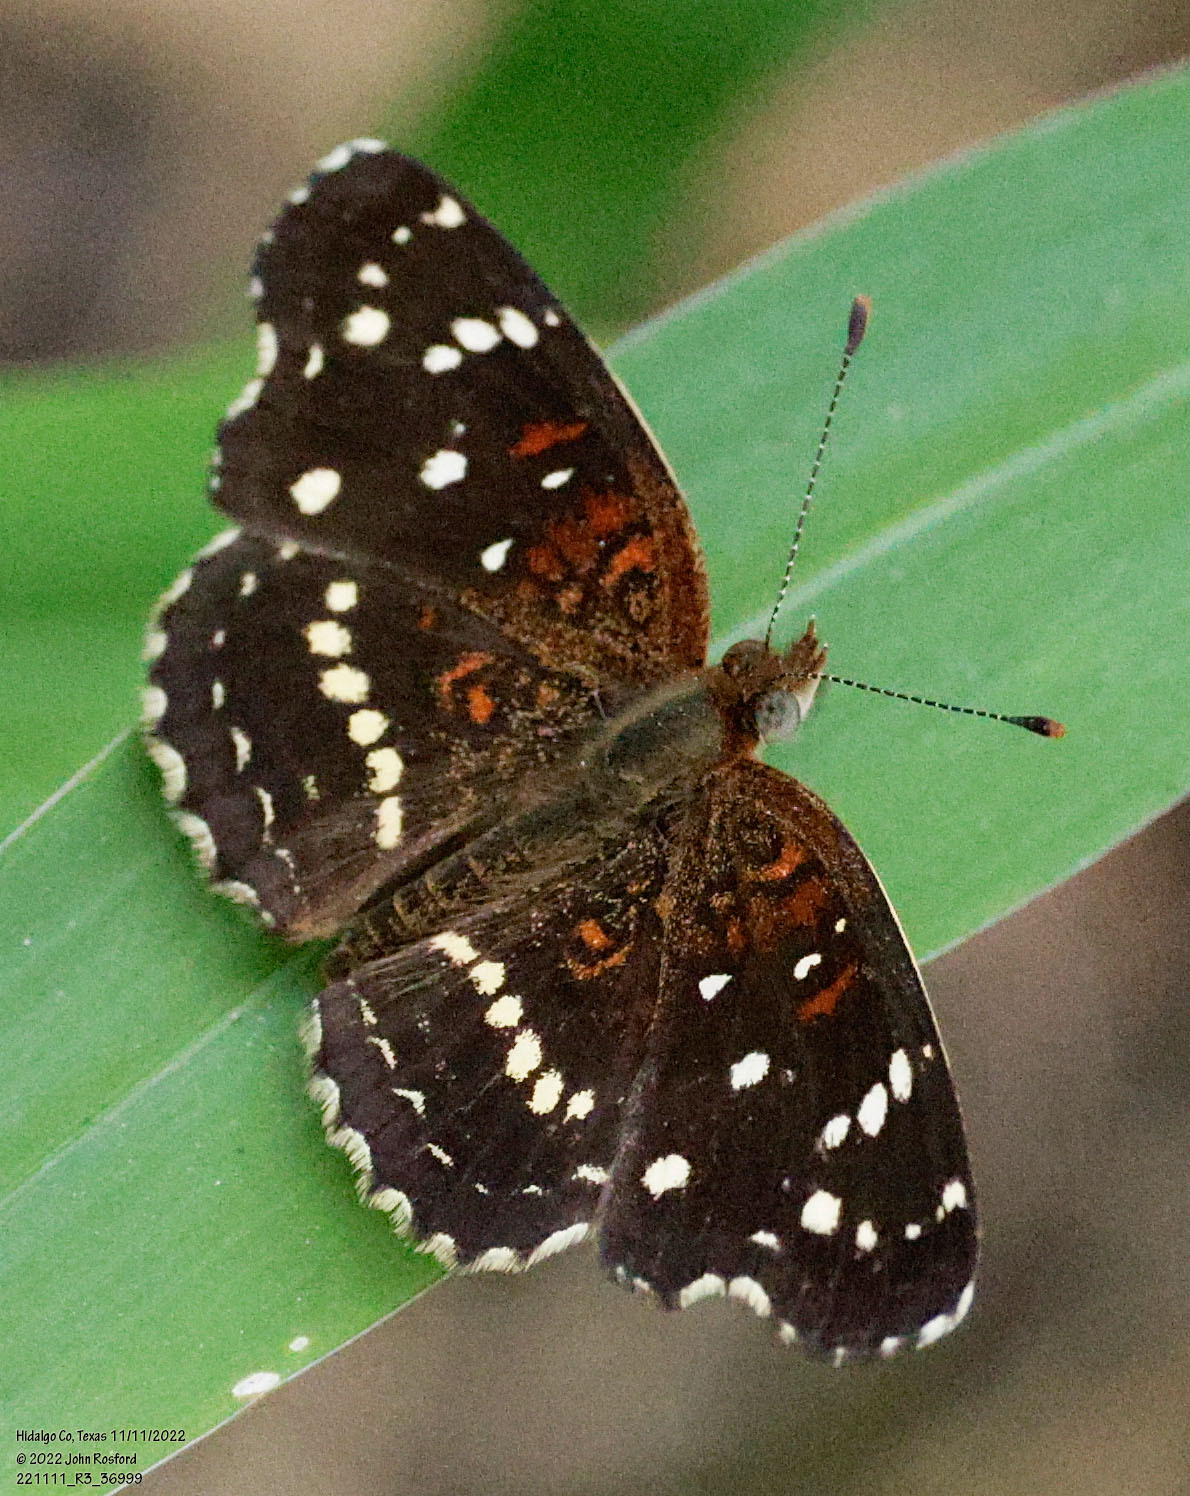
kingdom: Animalia
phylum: Arthropoda
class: Insecta
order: Lepidoptera
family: Nymphalidae
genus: Anthanassa
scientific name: Anthanassa texana
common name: Texan crescent
